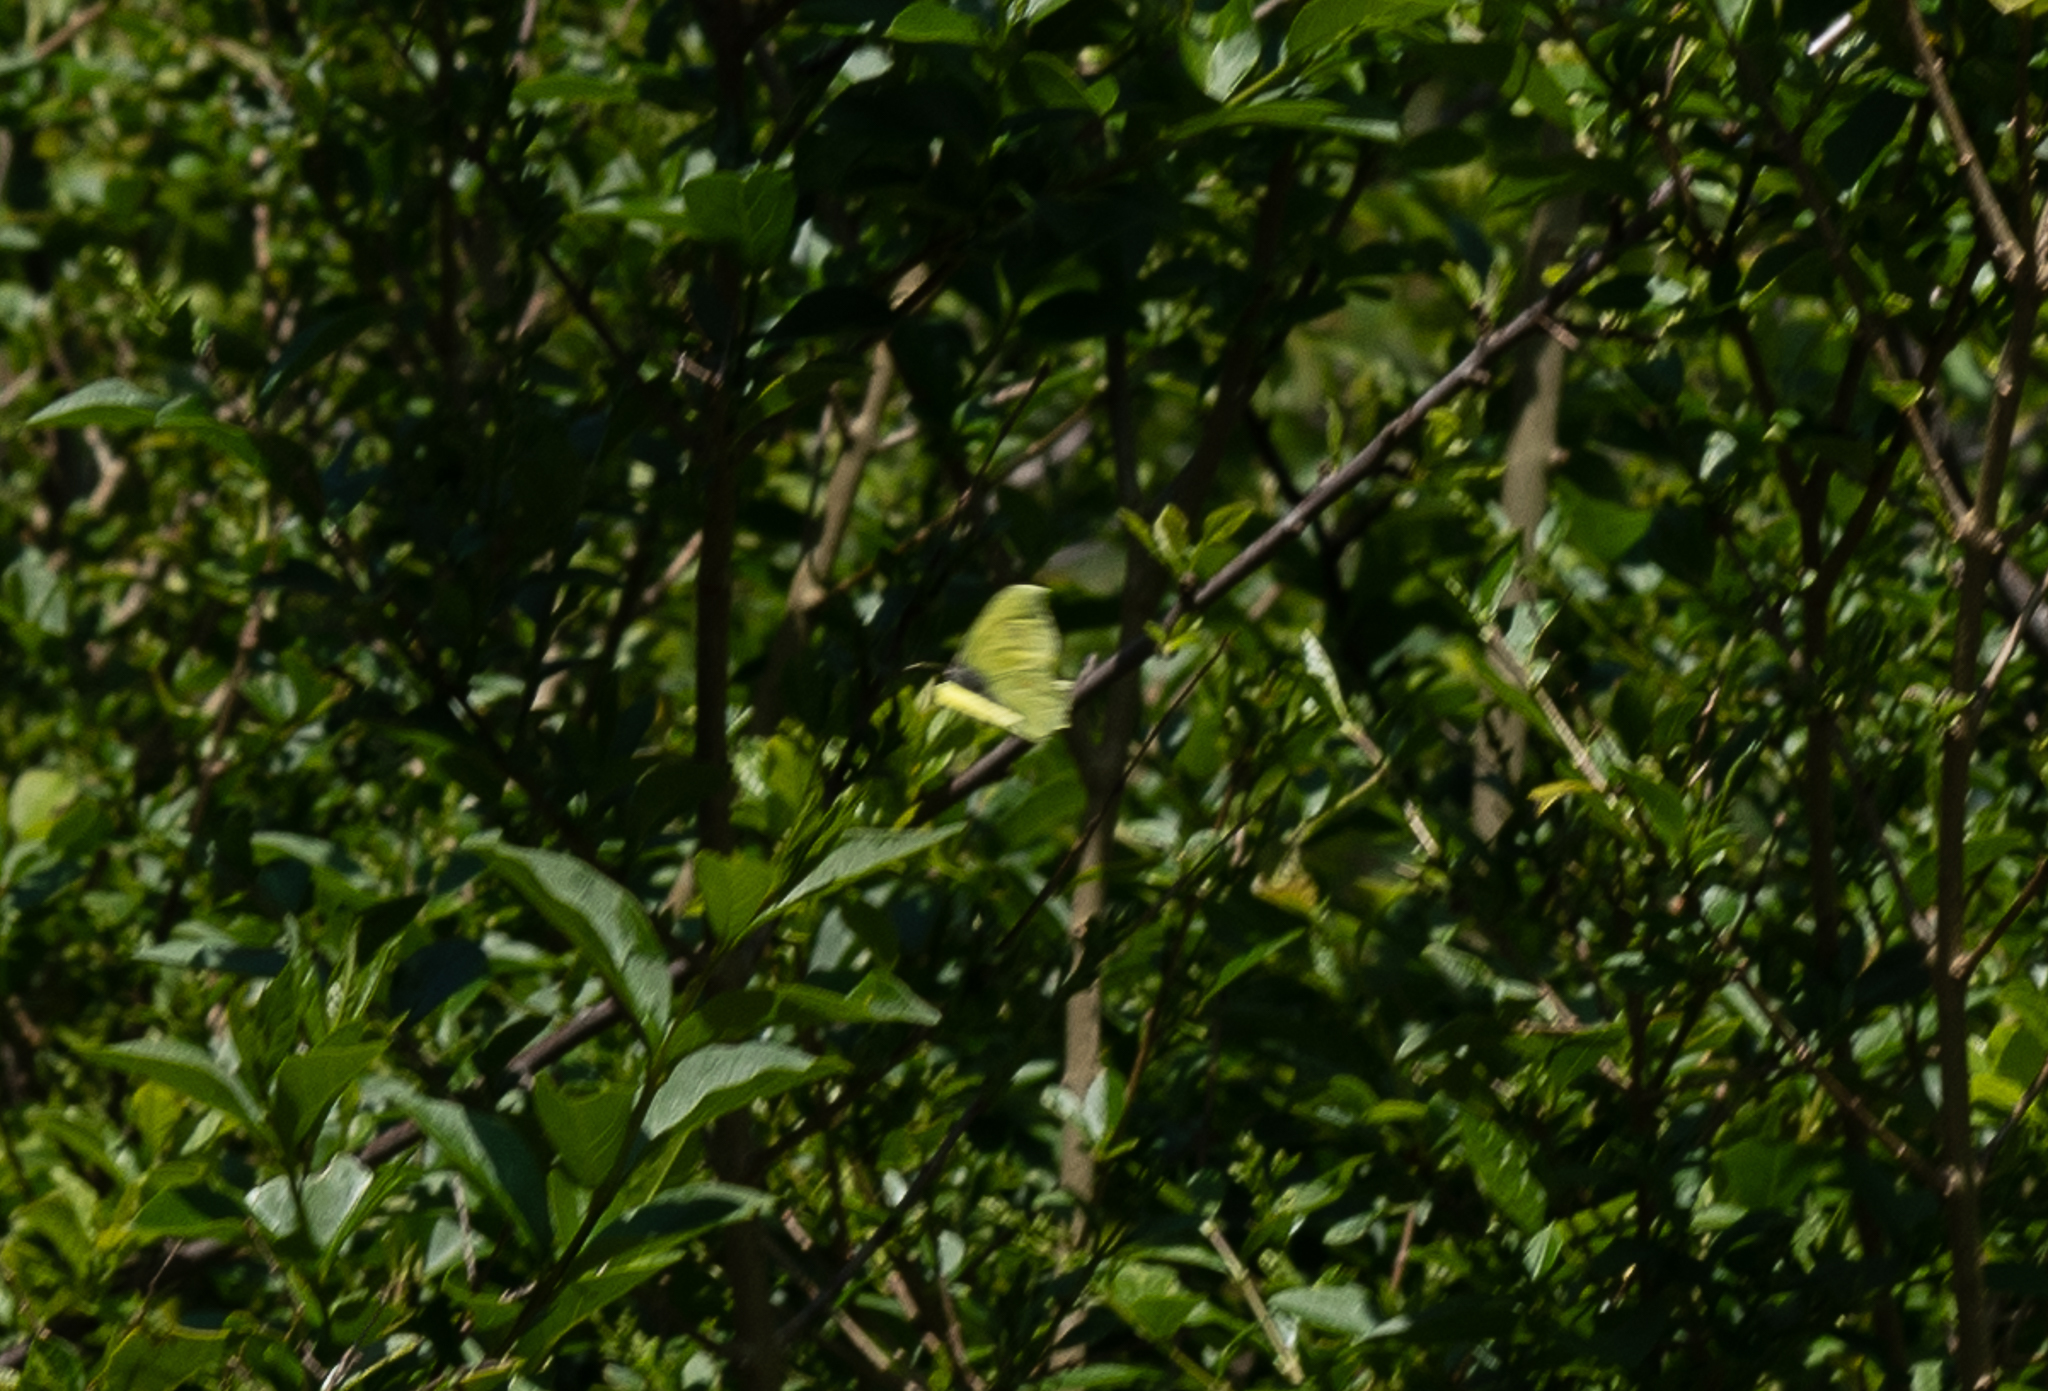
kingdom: Animalia
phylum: Arthropoda
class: Insecta
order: Lepidoptera
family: Pieridae
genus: Gonepteryx
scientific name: Gonepteryx rhamni
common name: Brimstone
